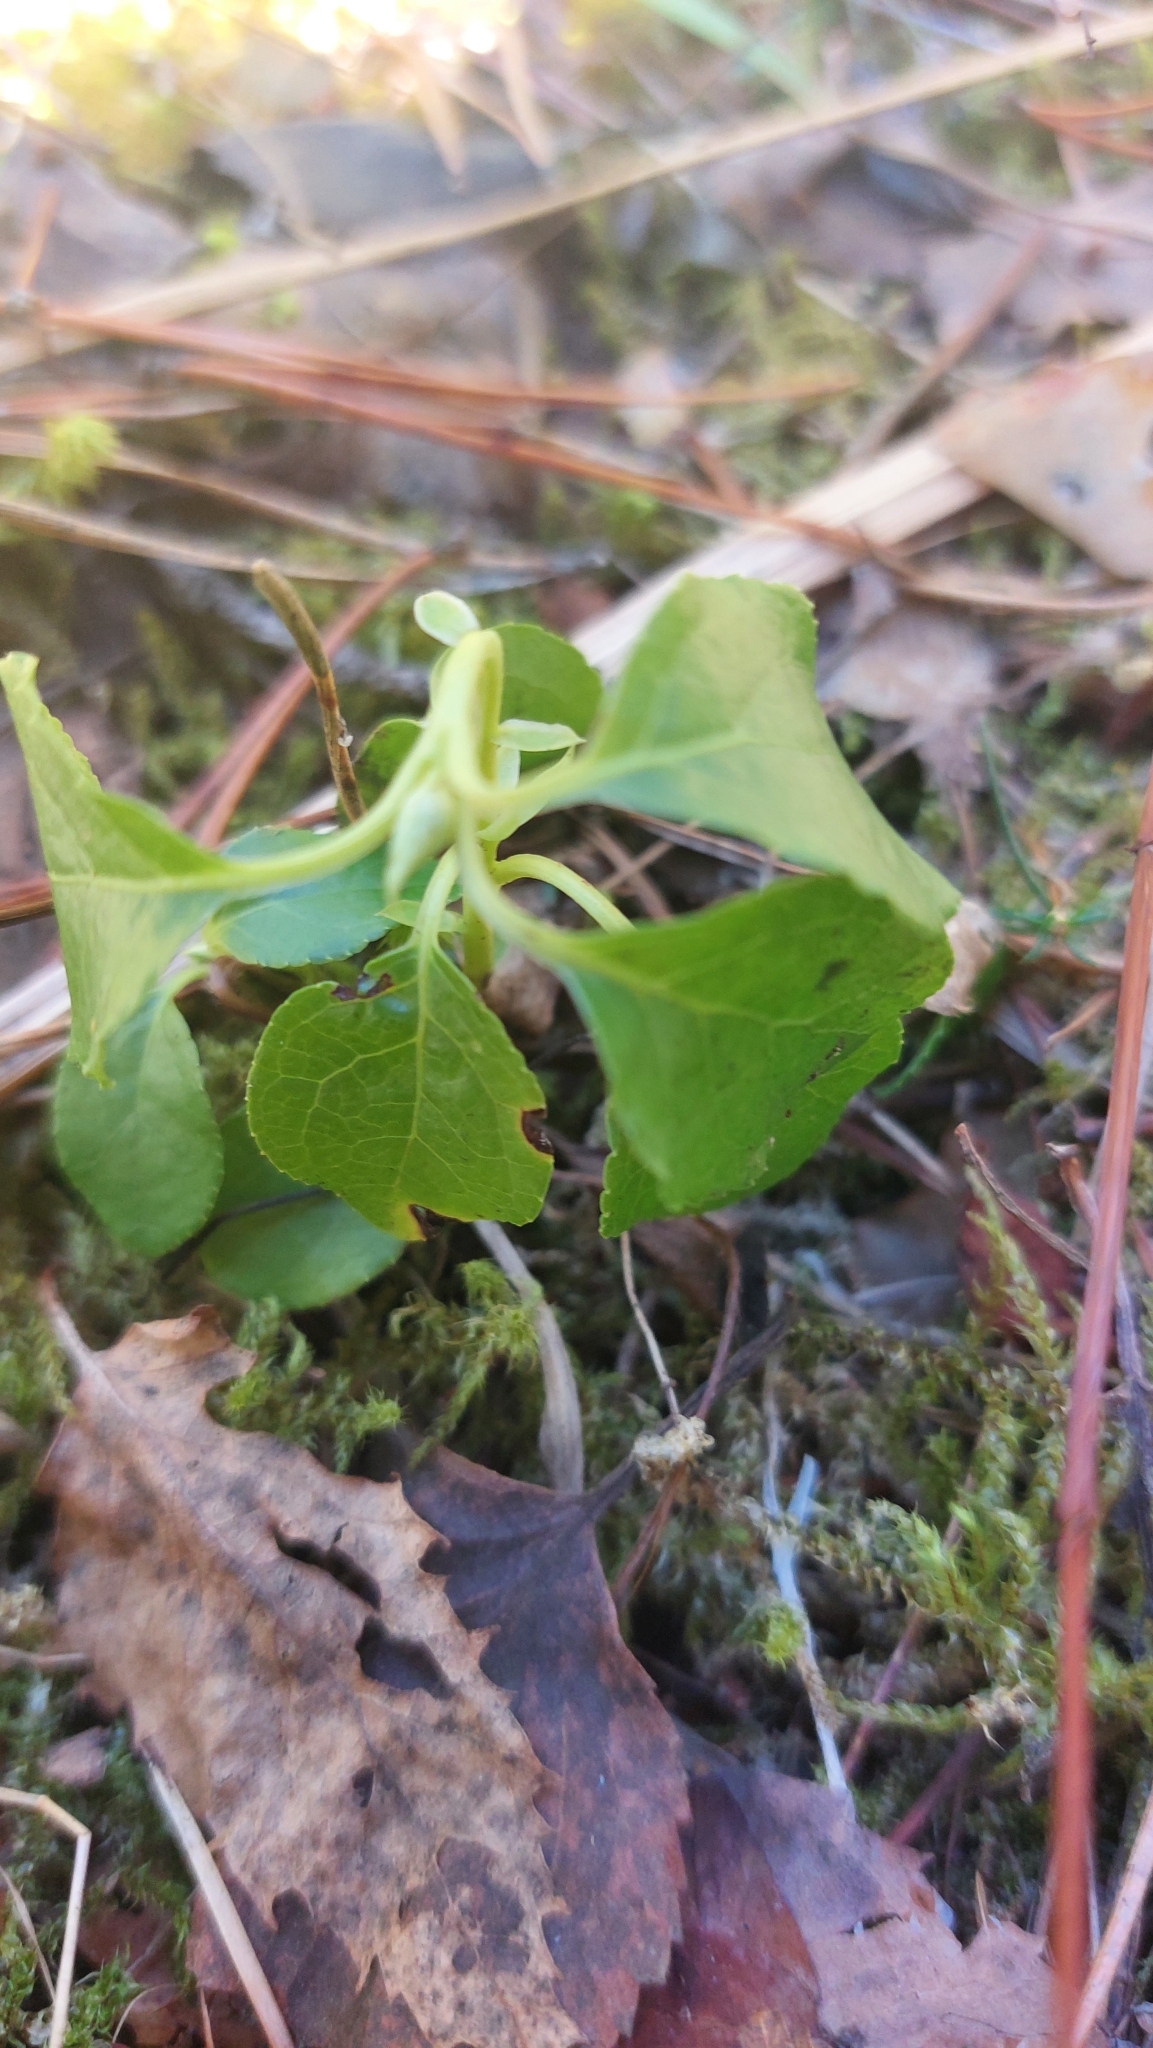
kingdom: Plantae
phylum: Tracheophyta
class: Magnoliopsida
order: Ericales
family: Ericaceae
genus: Orthilia
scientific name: Orthilia secunda
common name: One-sided orthilia
